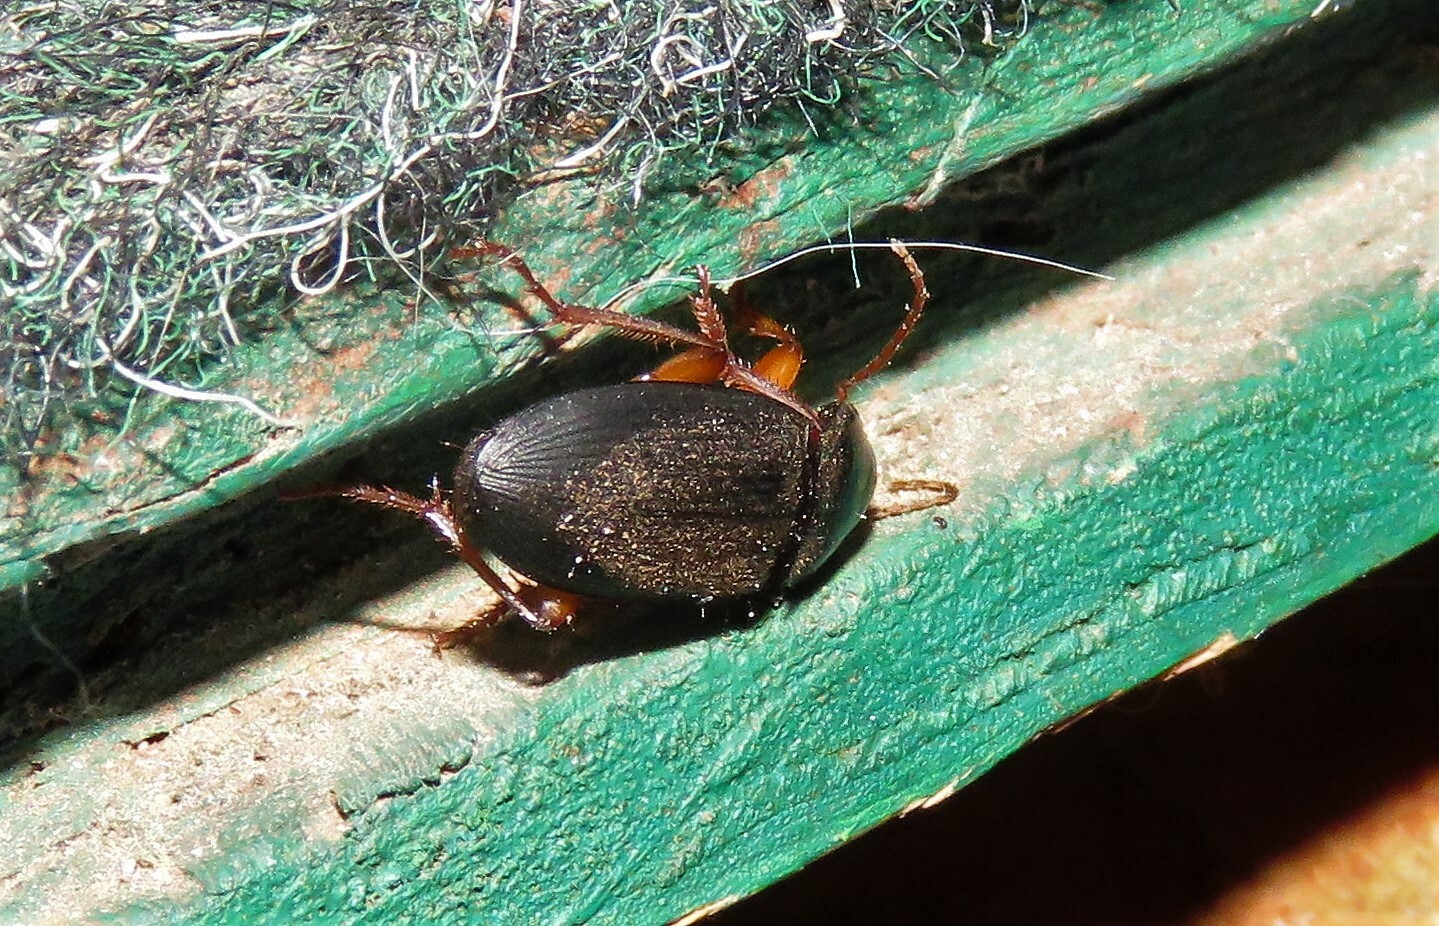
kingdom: Animalia
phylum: Arthropoda
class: Insecta
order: Coleoptera
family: Carabidae
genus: Harpalus
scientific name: Harpalus rufipes
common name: Strawberry harp ground beetle
